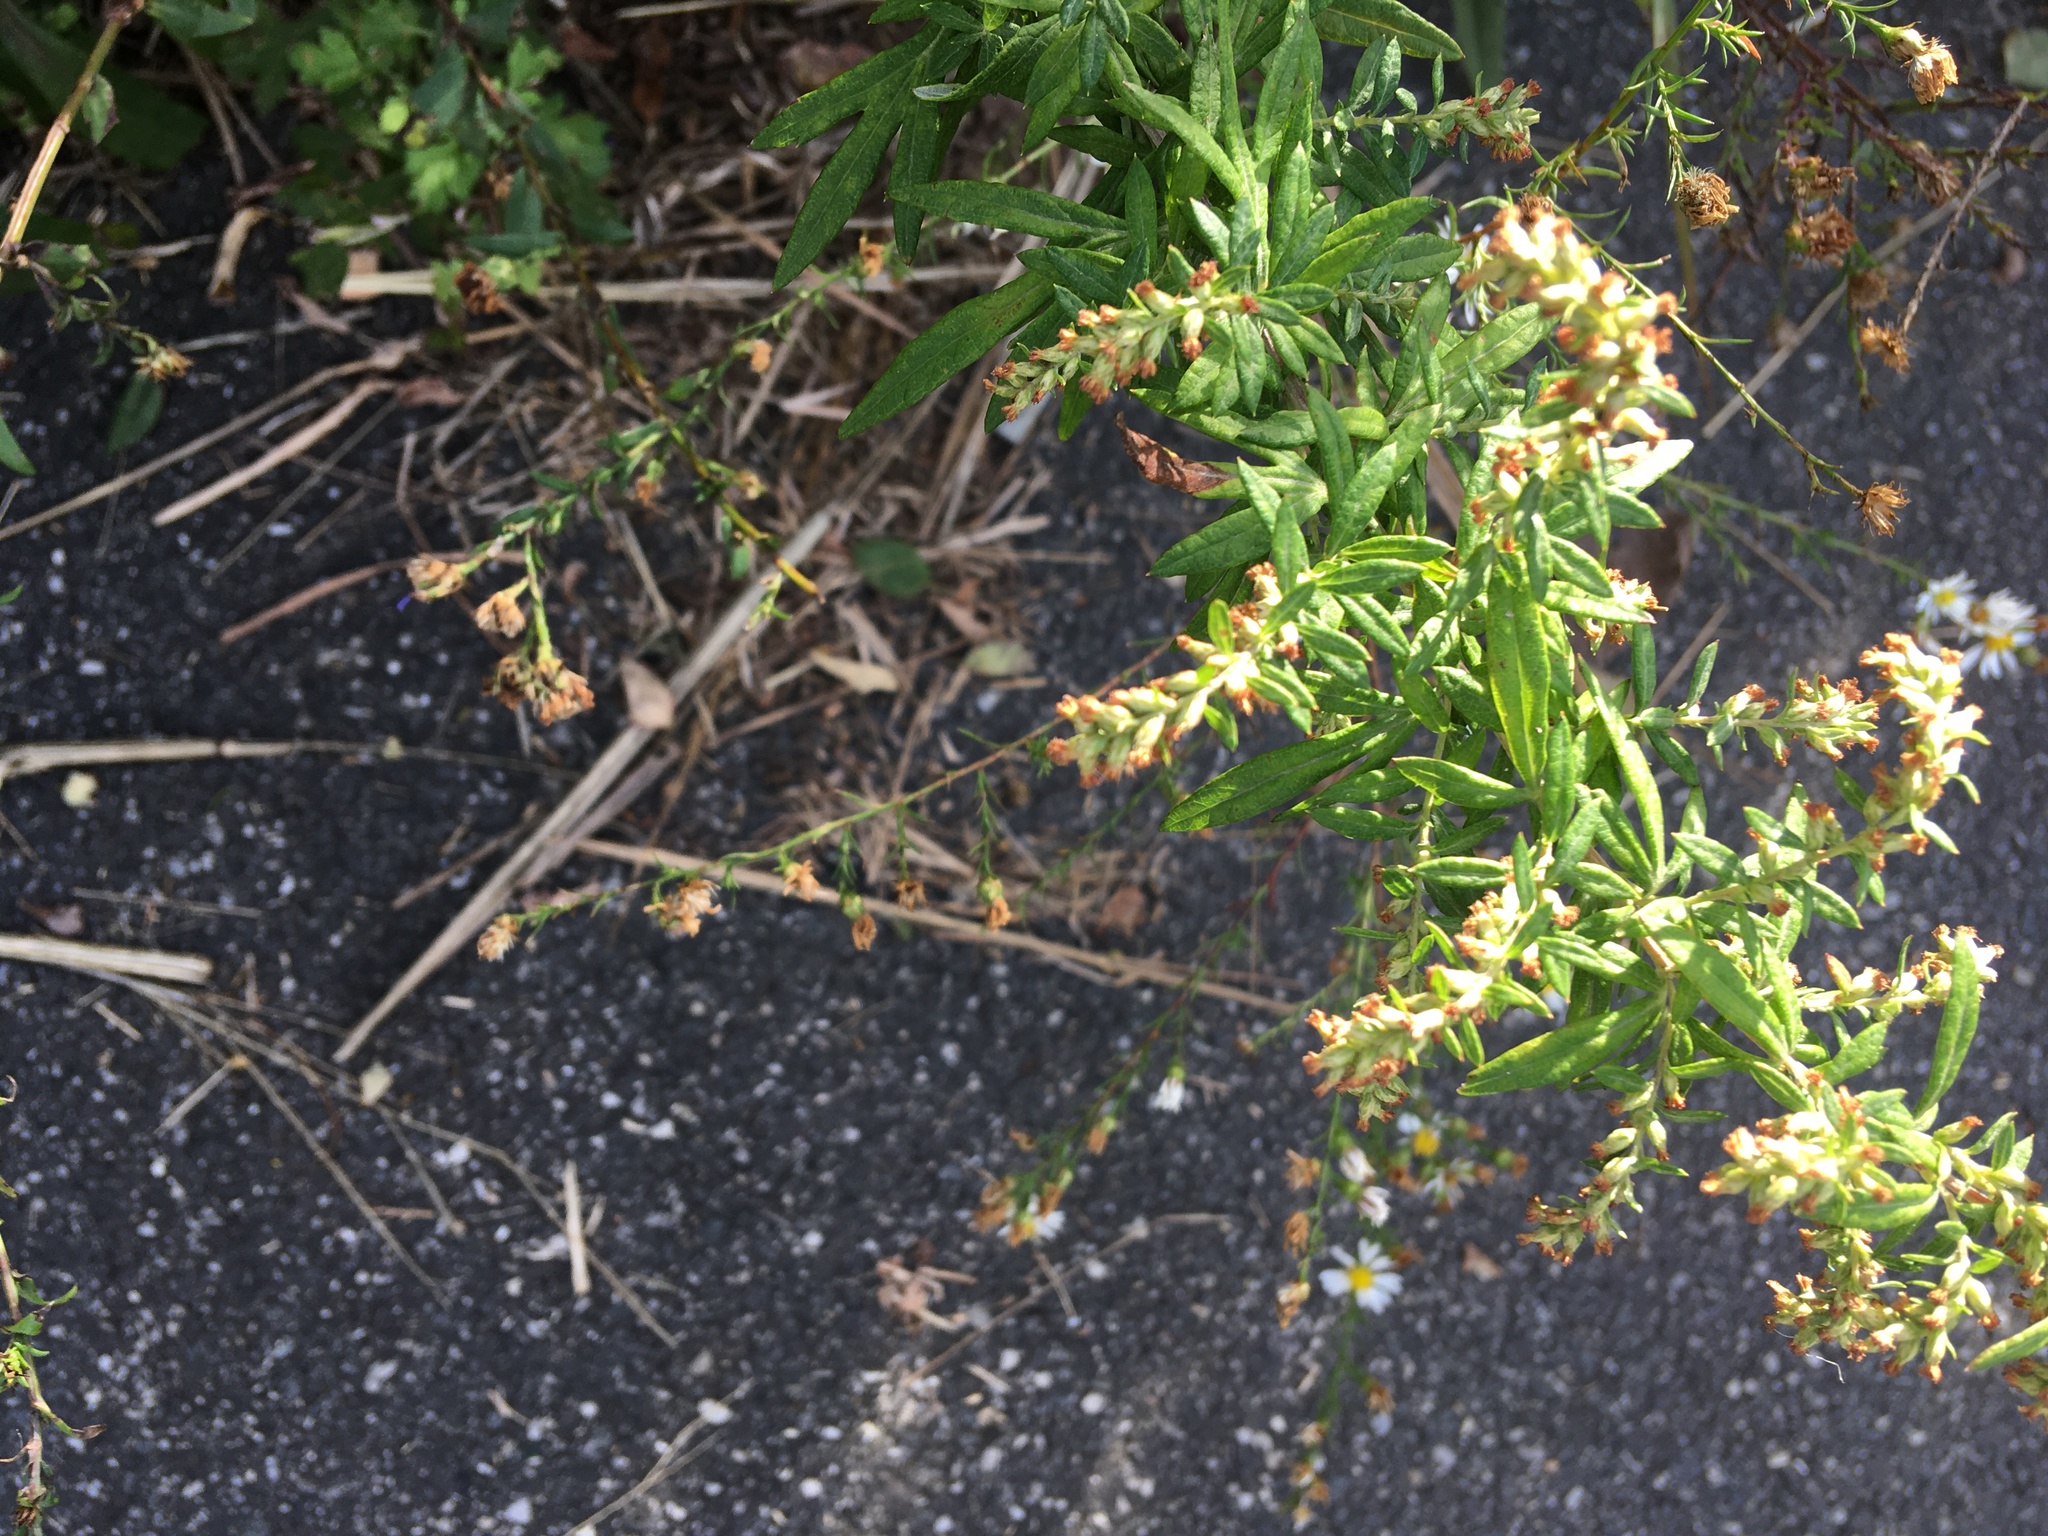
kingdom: Plantae
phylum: Tracheophyta
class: Magnoliopsida
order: Asterales
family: Asteraceae
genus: Artemisia
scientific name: Artemisia vulgaris
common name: Mugwort
